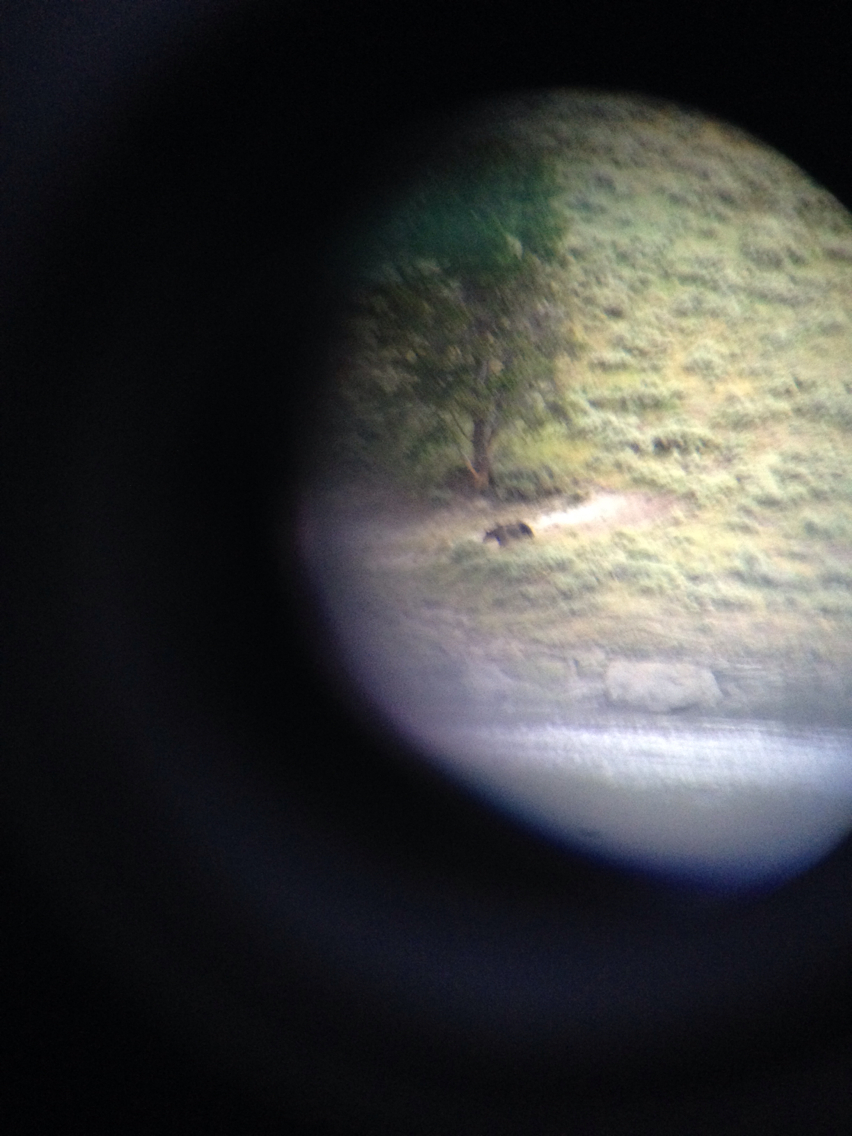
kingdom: Animalia
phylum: Chordata
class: Mammalia
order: Carnivora
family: Ursidae
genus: Ursus
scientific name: Ursus arctos
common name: Brown bear
